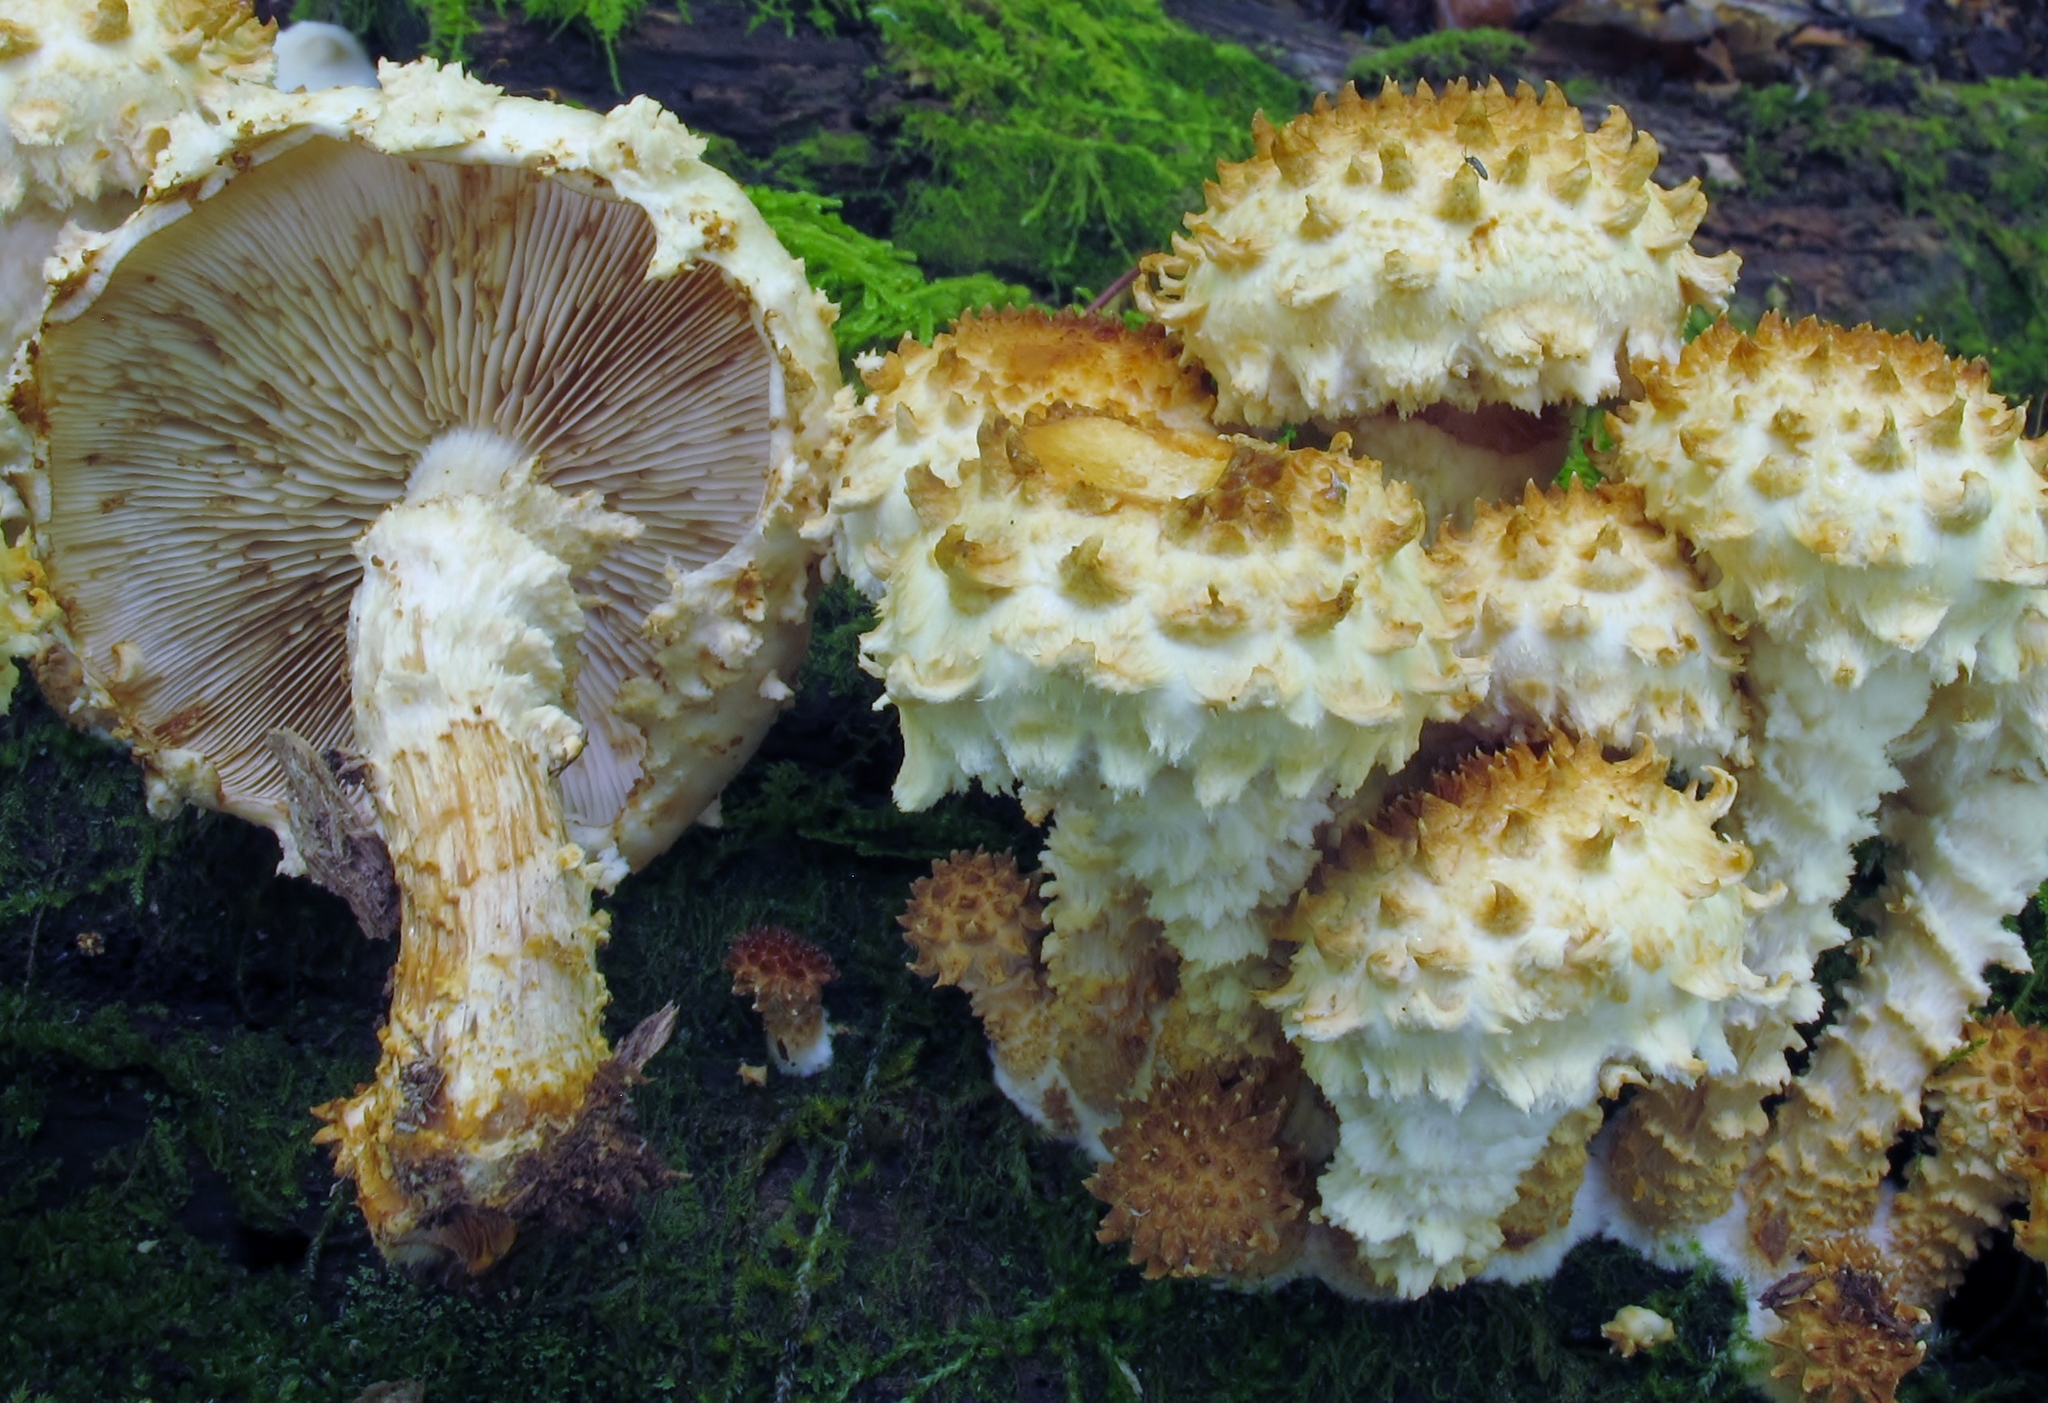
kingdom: Fungi
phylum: Basidiomycota
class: Agaricomycetes
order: Agaricales
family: Strophariaceae
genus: Pholiota
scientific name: Pholiota squarrosoides
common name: Sharp-scaly pholiota
